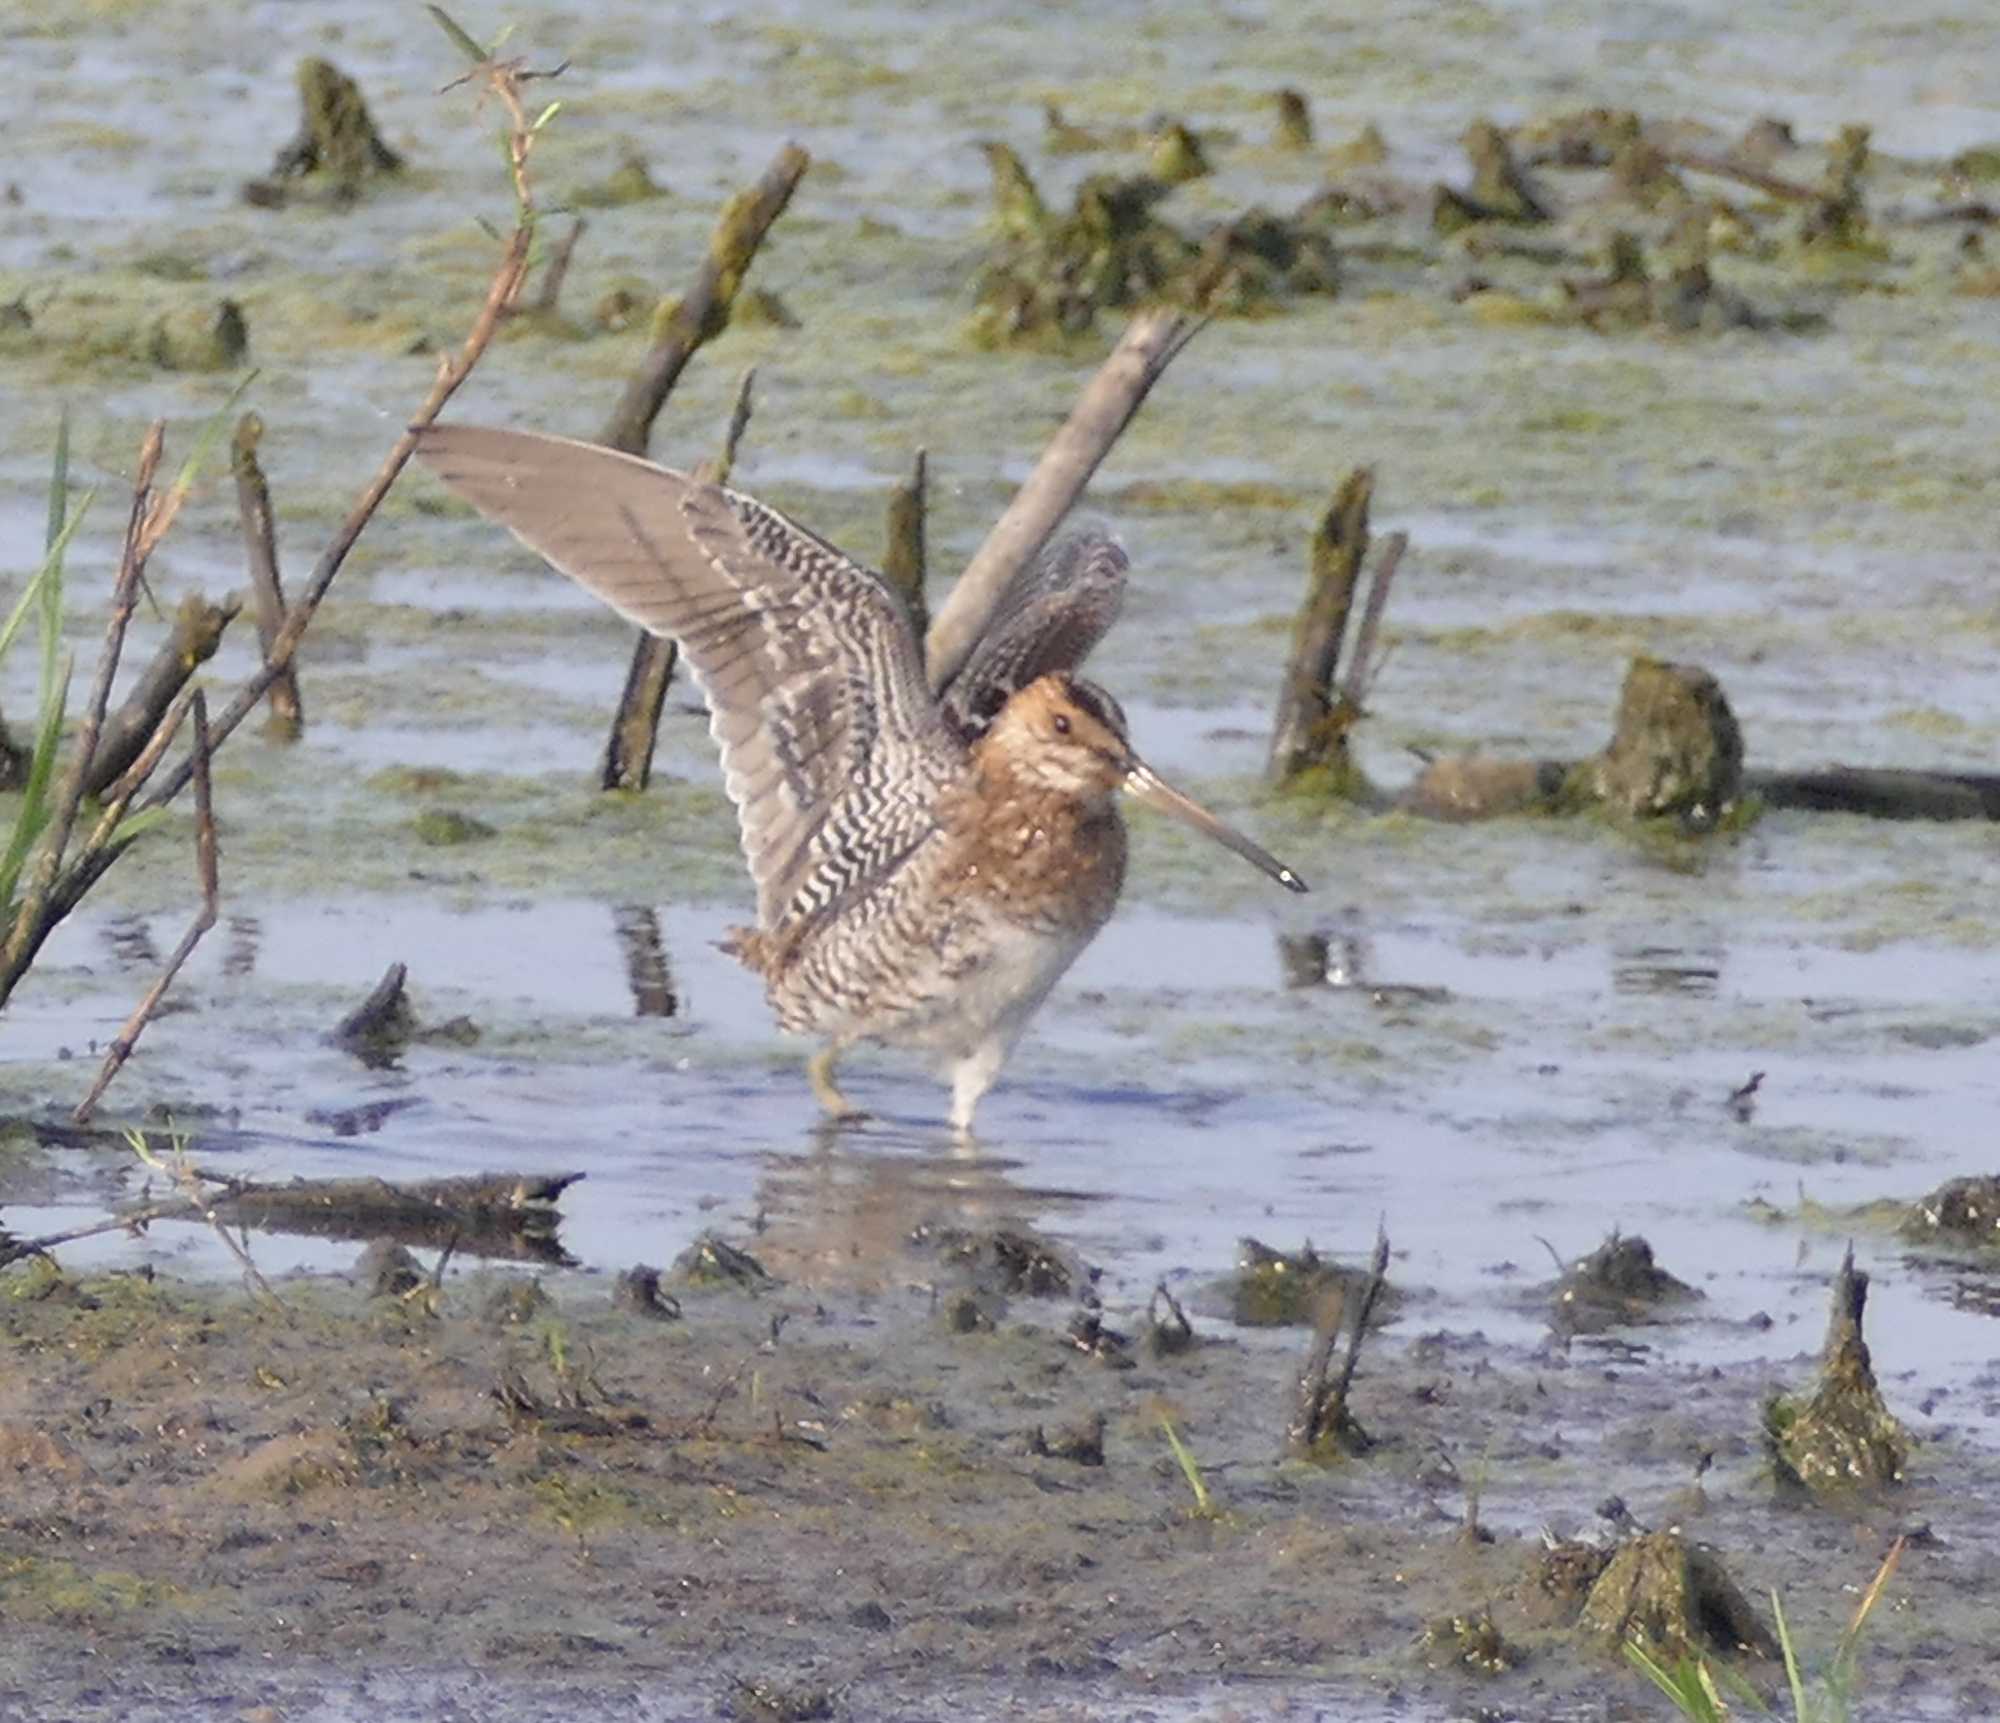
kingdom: Animalia
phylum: Chordata
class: Aves
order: Charadriiformes
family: Scolopacidae
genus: Gallinago
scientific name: Gallinago delicata
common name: Wilson's snipe
